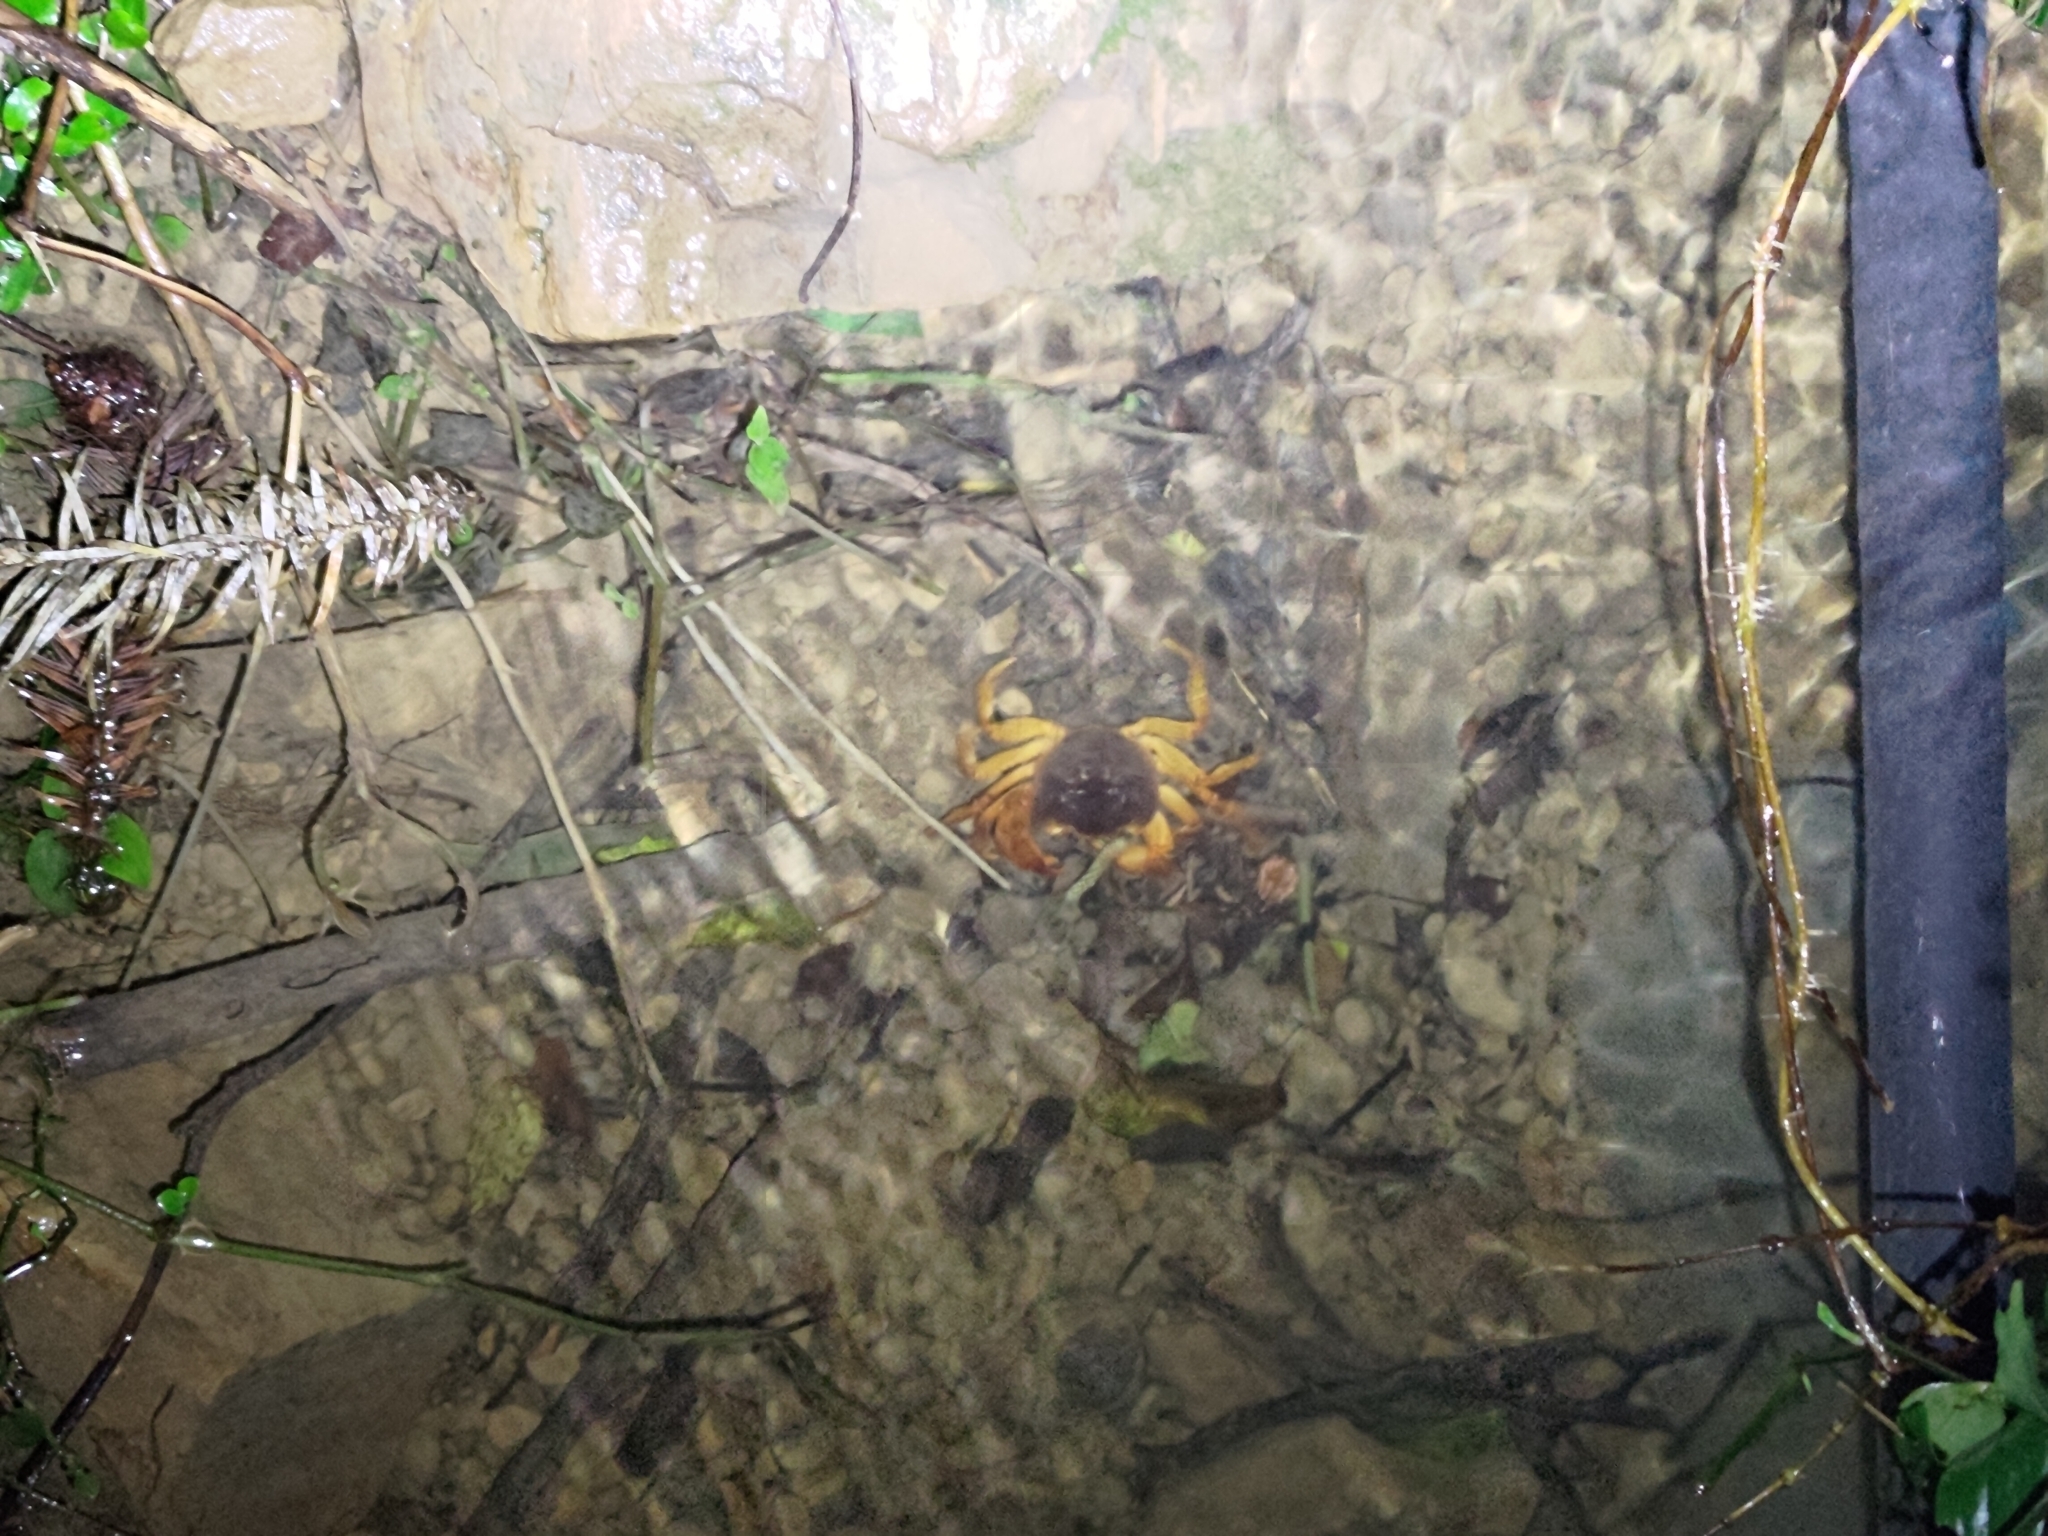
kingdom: Animalia
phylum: Arthropoda
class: Malacostraca
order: Decapoda
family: Potamidae
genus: Candidiopotamon
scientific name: Candidiopotamon rathbuni
